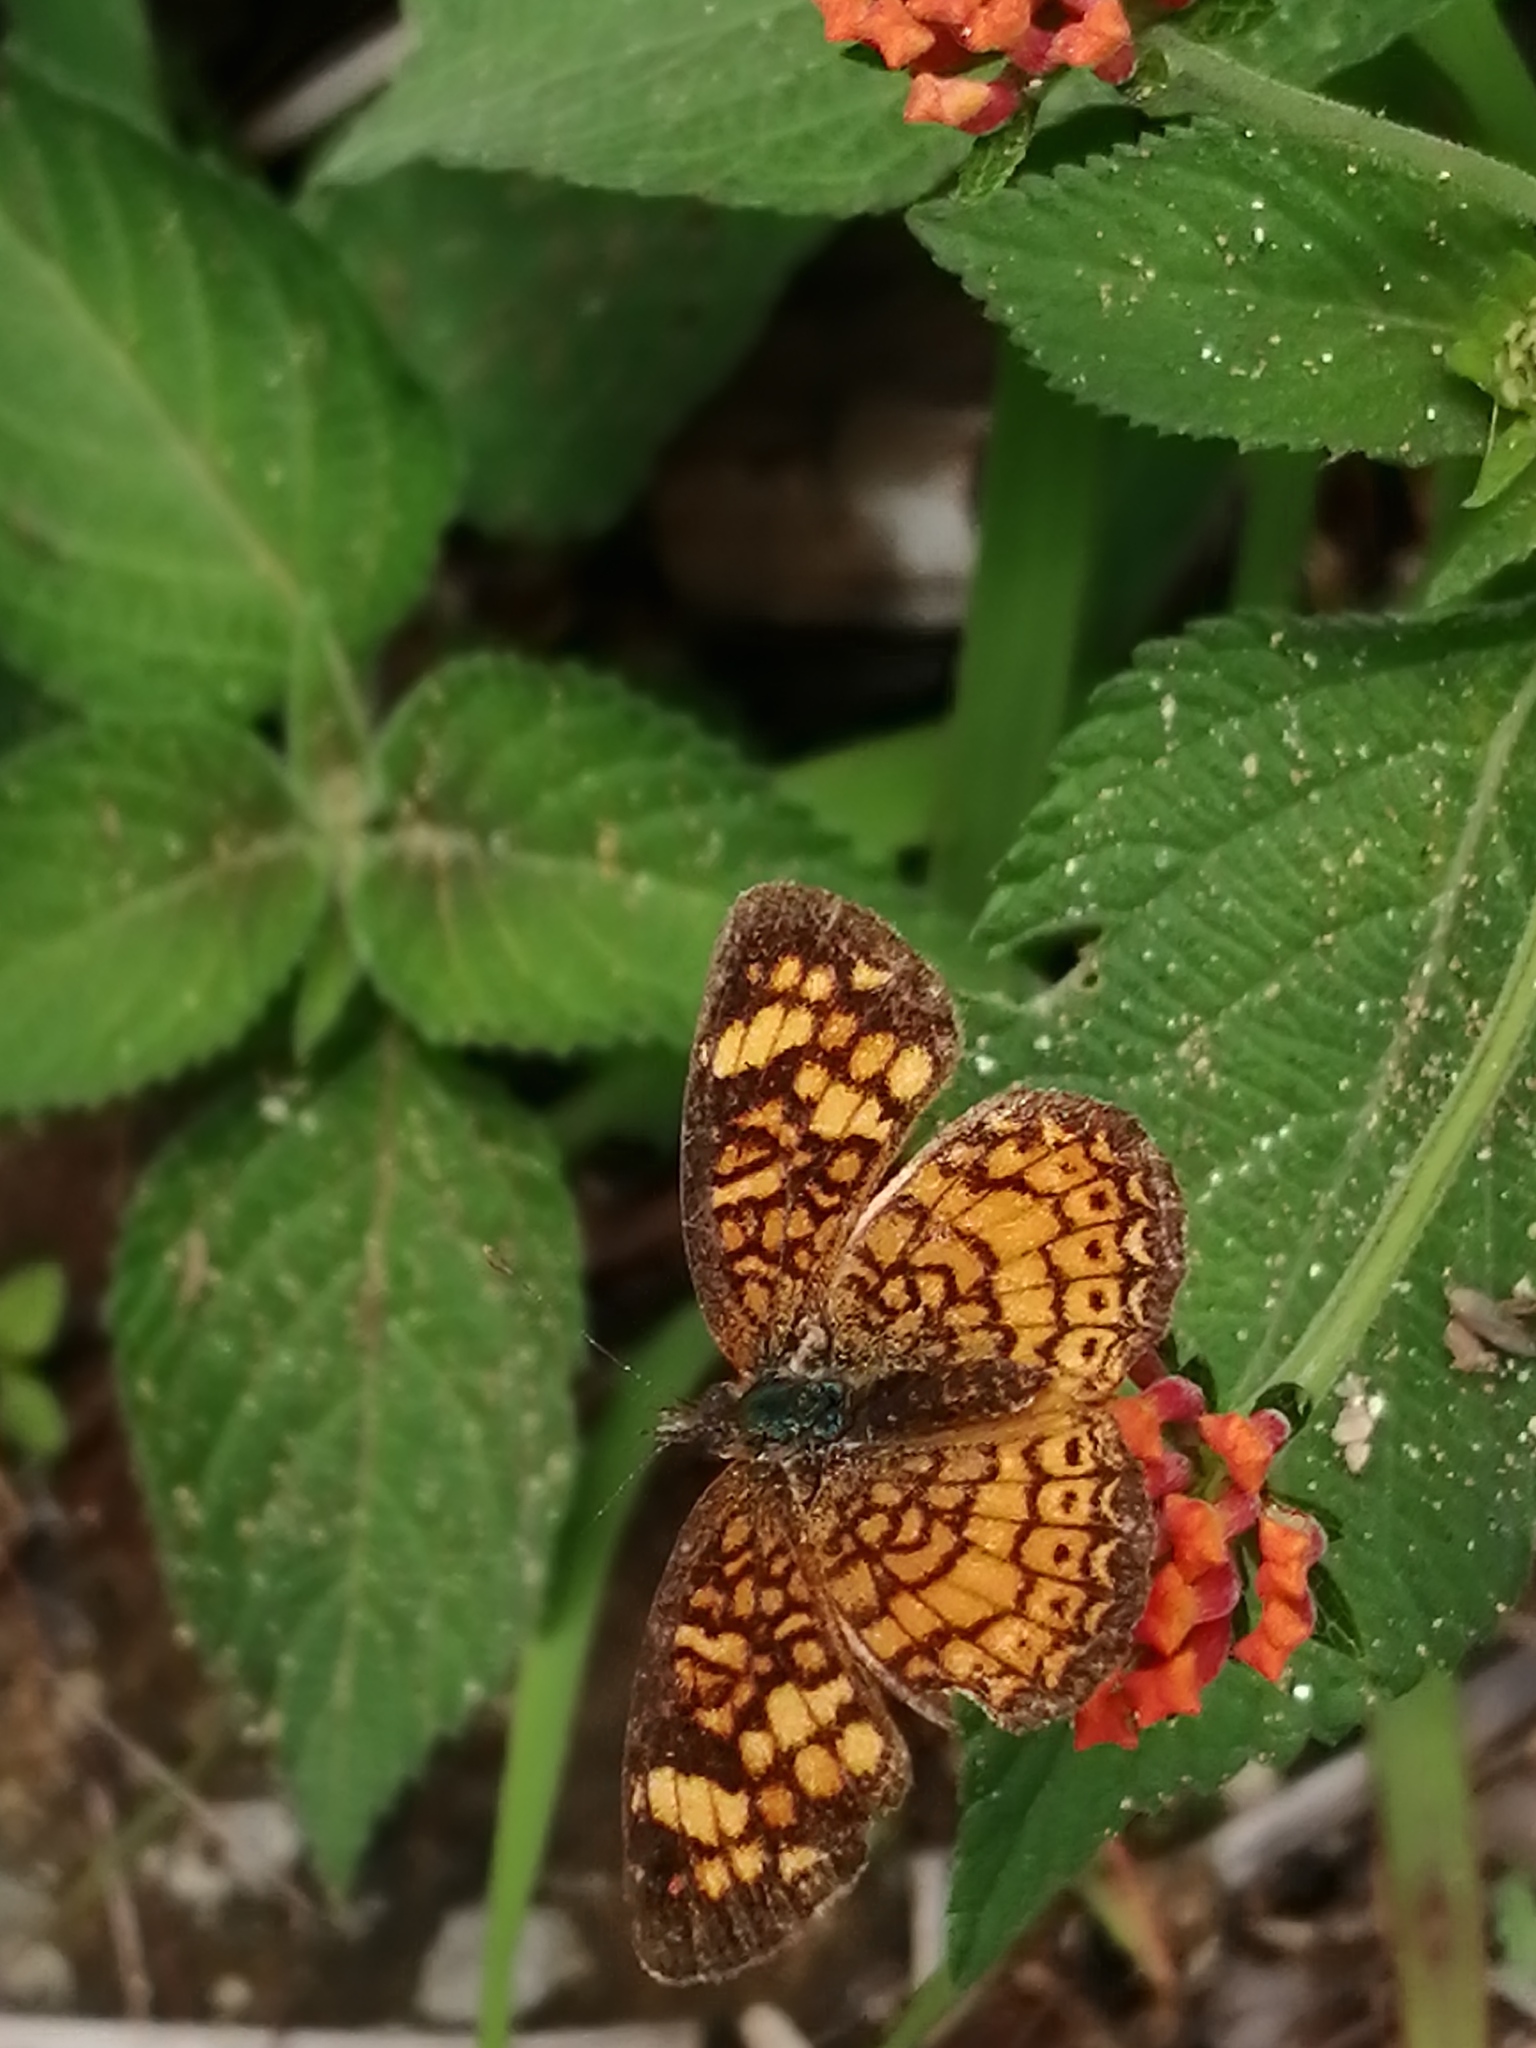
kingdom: Animalia
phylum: Arthropoda
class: Insecta
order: Lepidoptera
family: Nymphalidae
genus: Phyciodes
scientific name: Phyciodes vesta
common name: Vesta crescent
